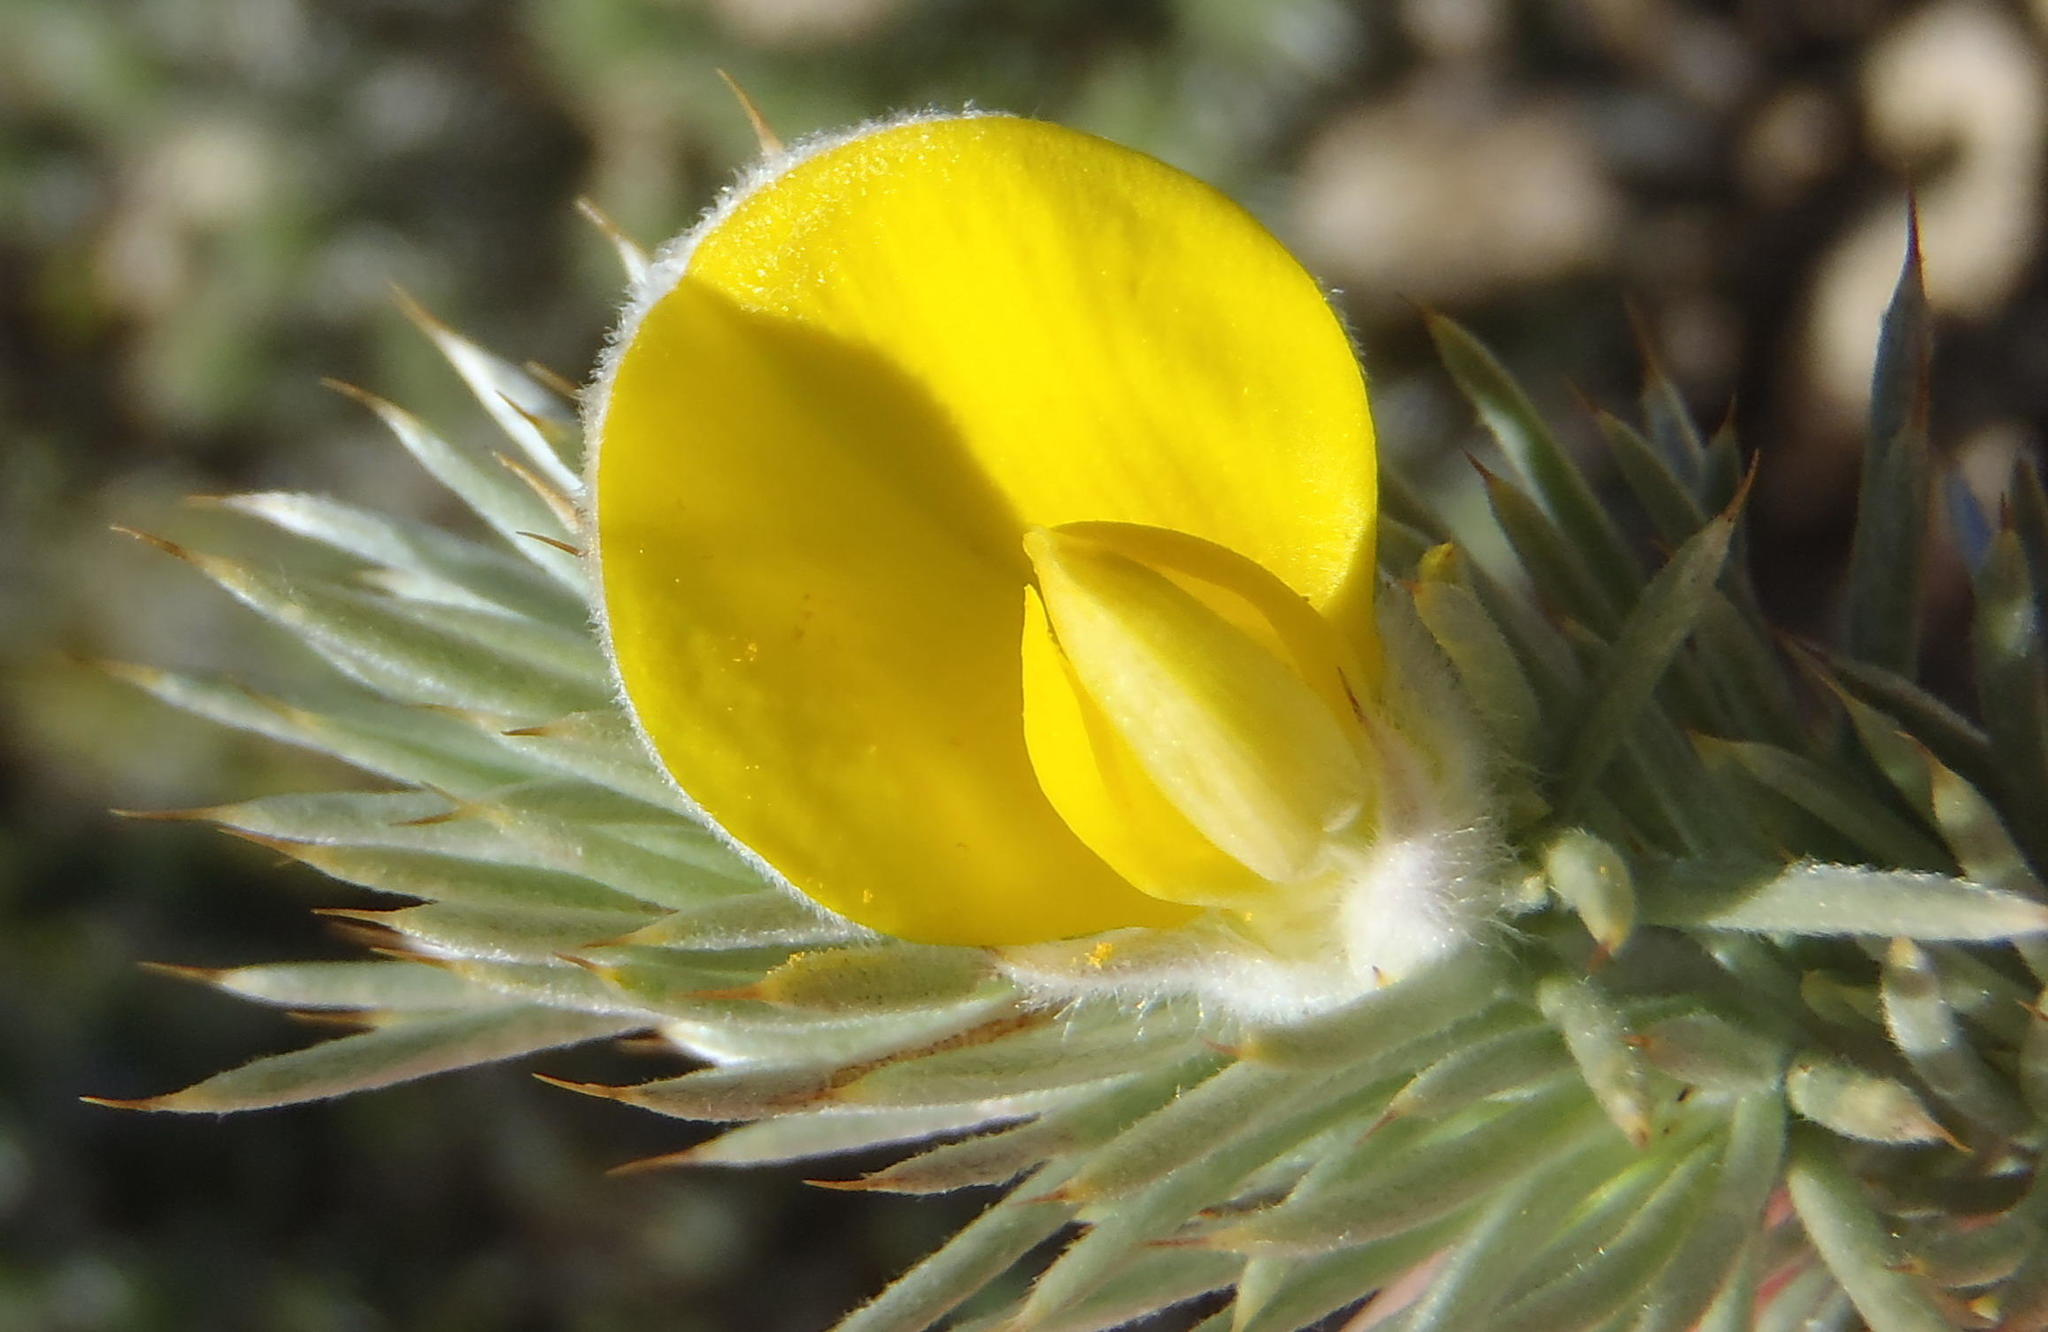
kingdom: Plantae
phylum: Tracheophyta
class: Magnoliopsida
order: Fabales
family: Fabaceae
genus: Aspalathus
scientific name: Aspalathus hystrix
